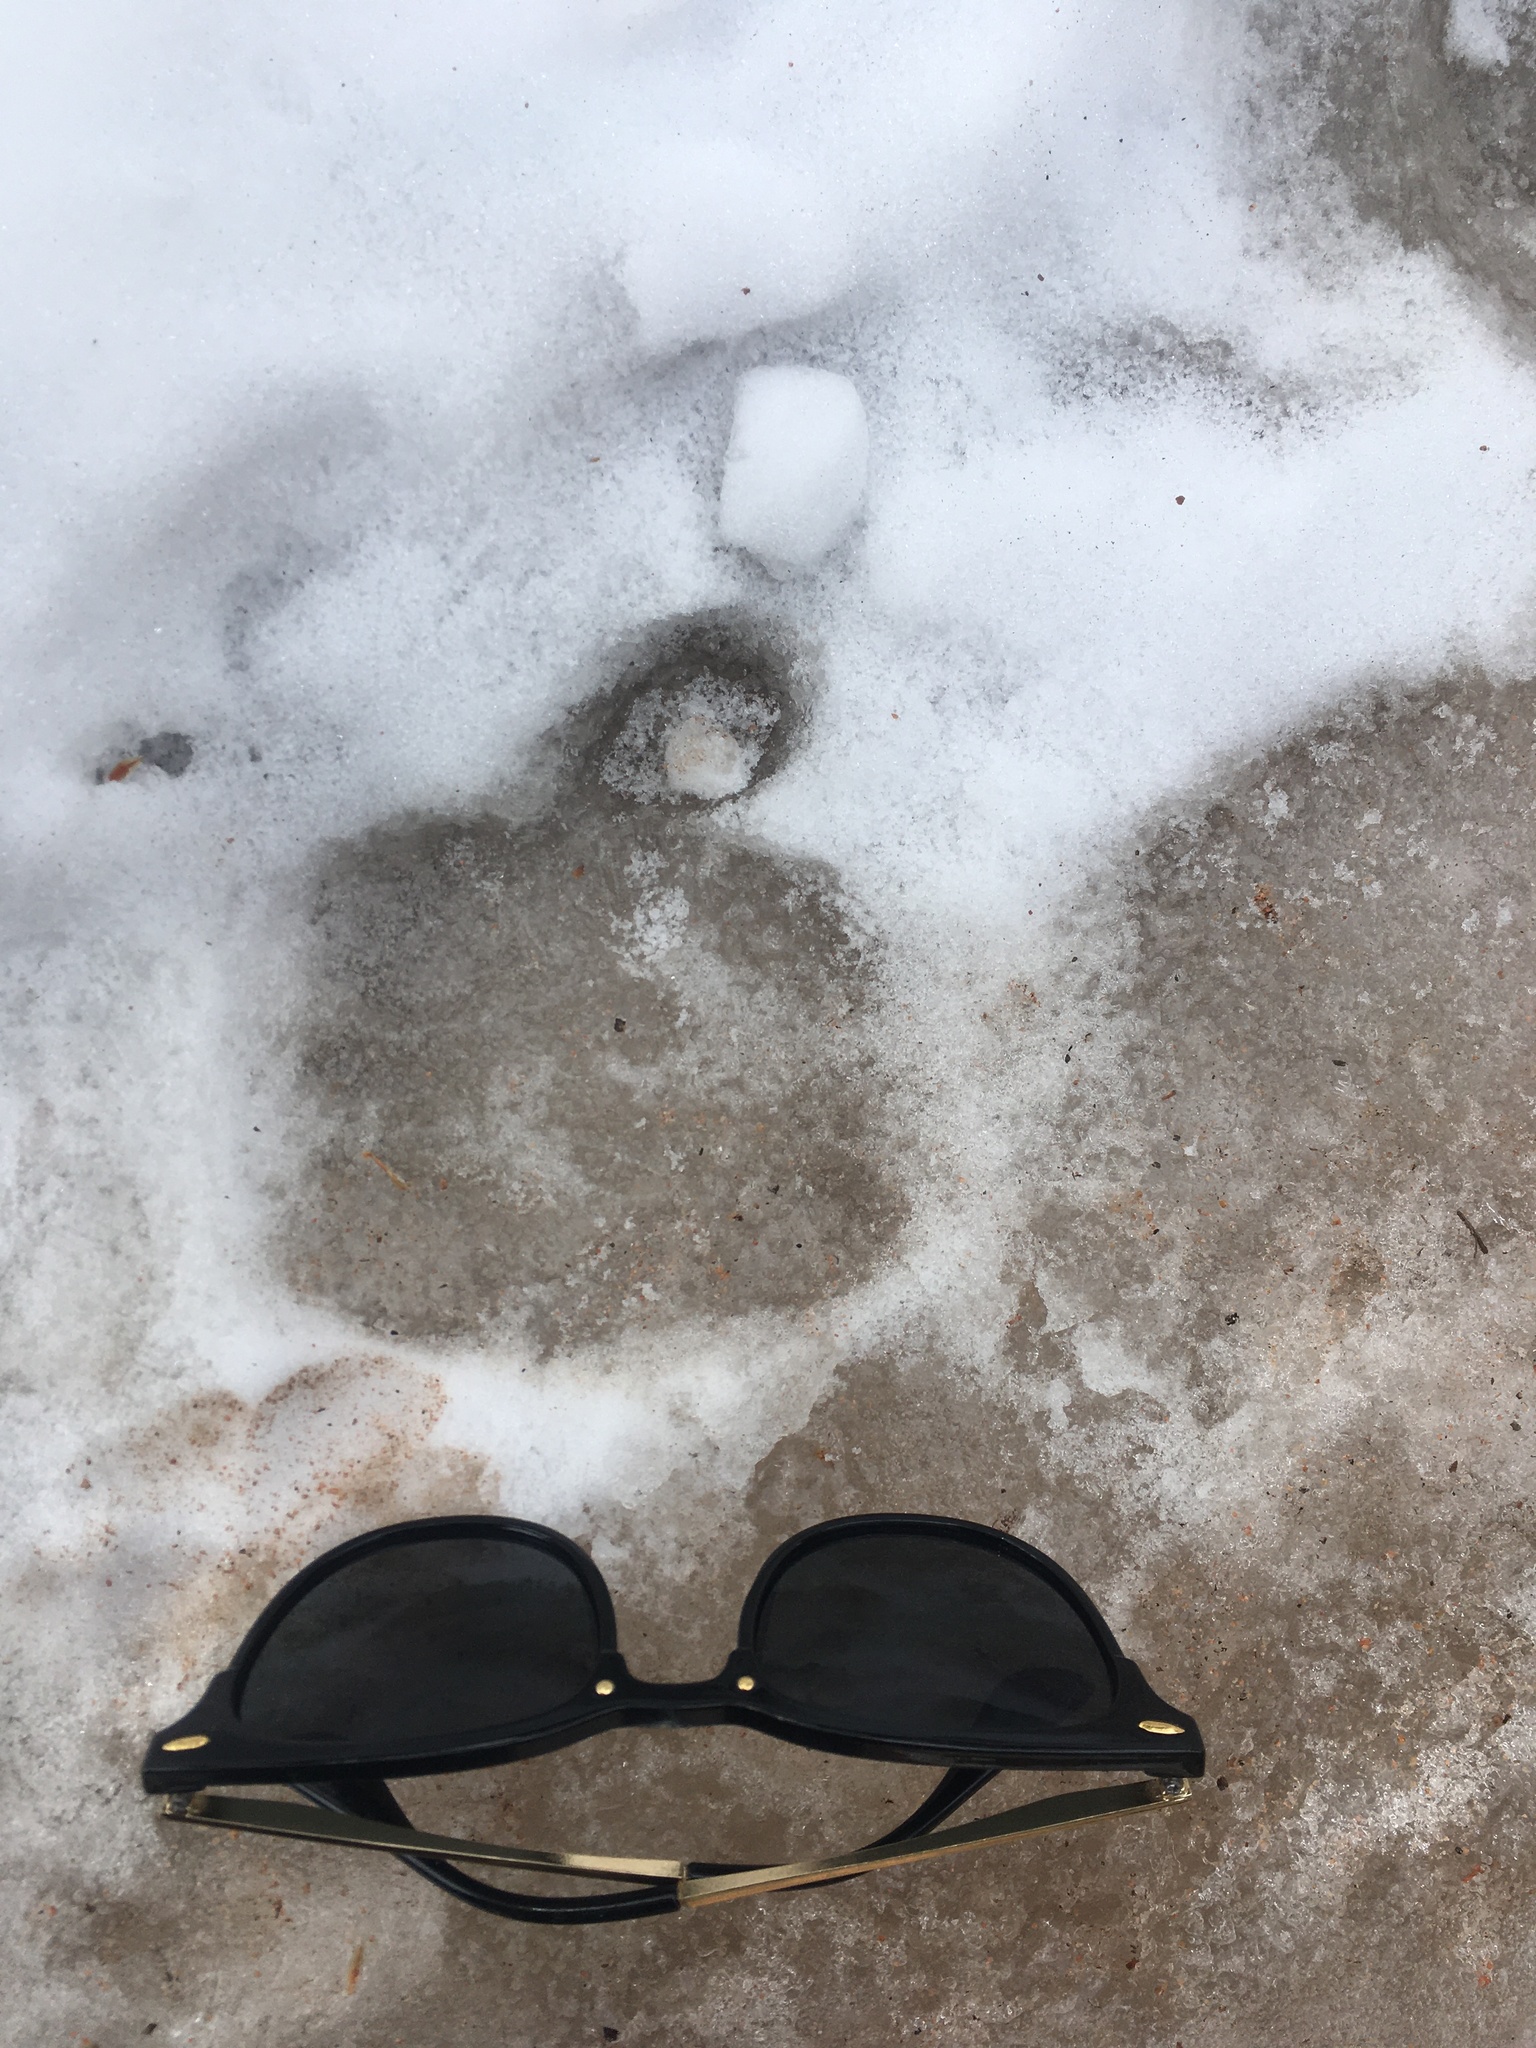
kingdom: Animalia
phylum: Chordata
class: Mammalia
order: Artiodactyla
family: Cervidae
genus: Alces
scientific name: Alces alces
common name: Moose
